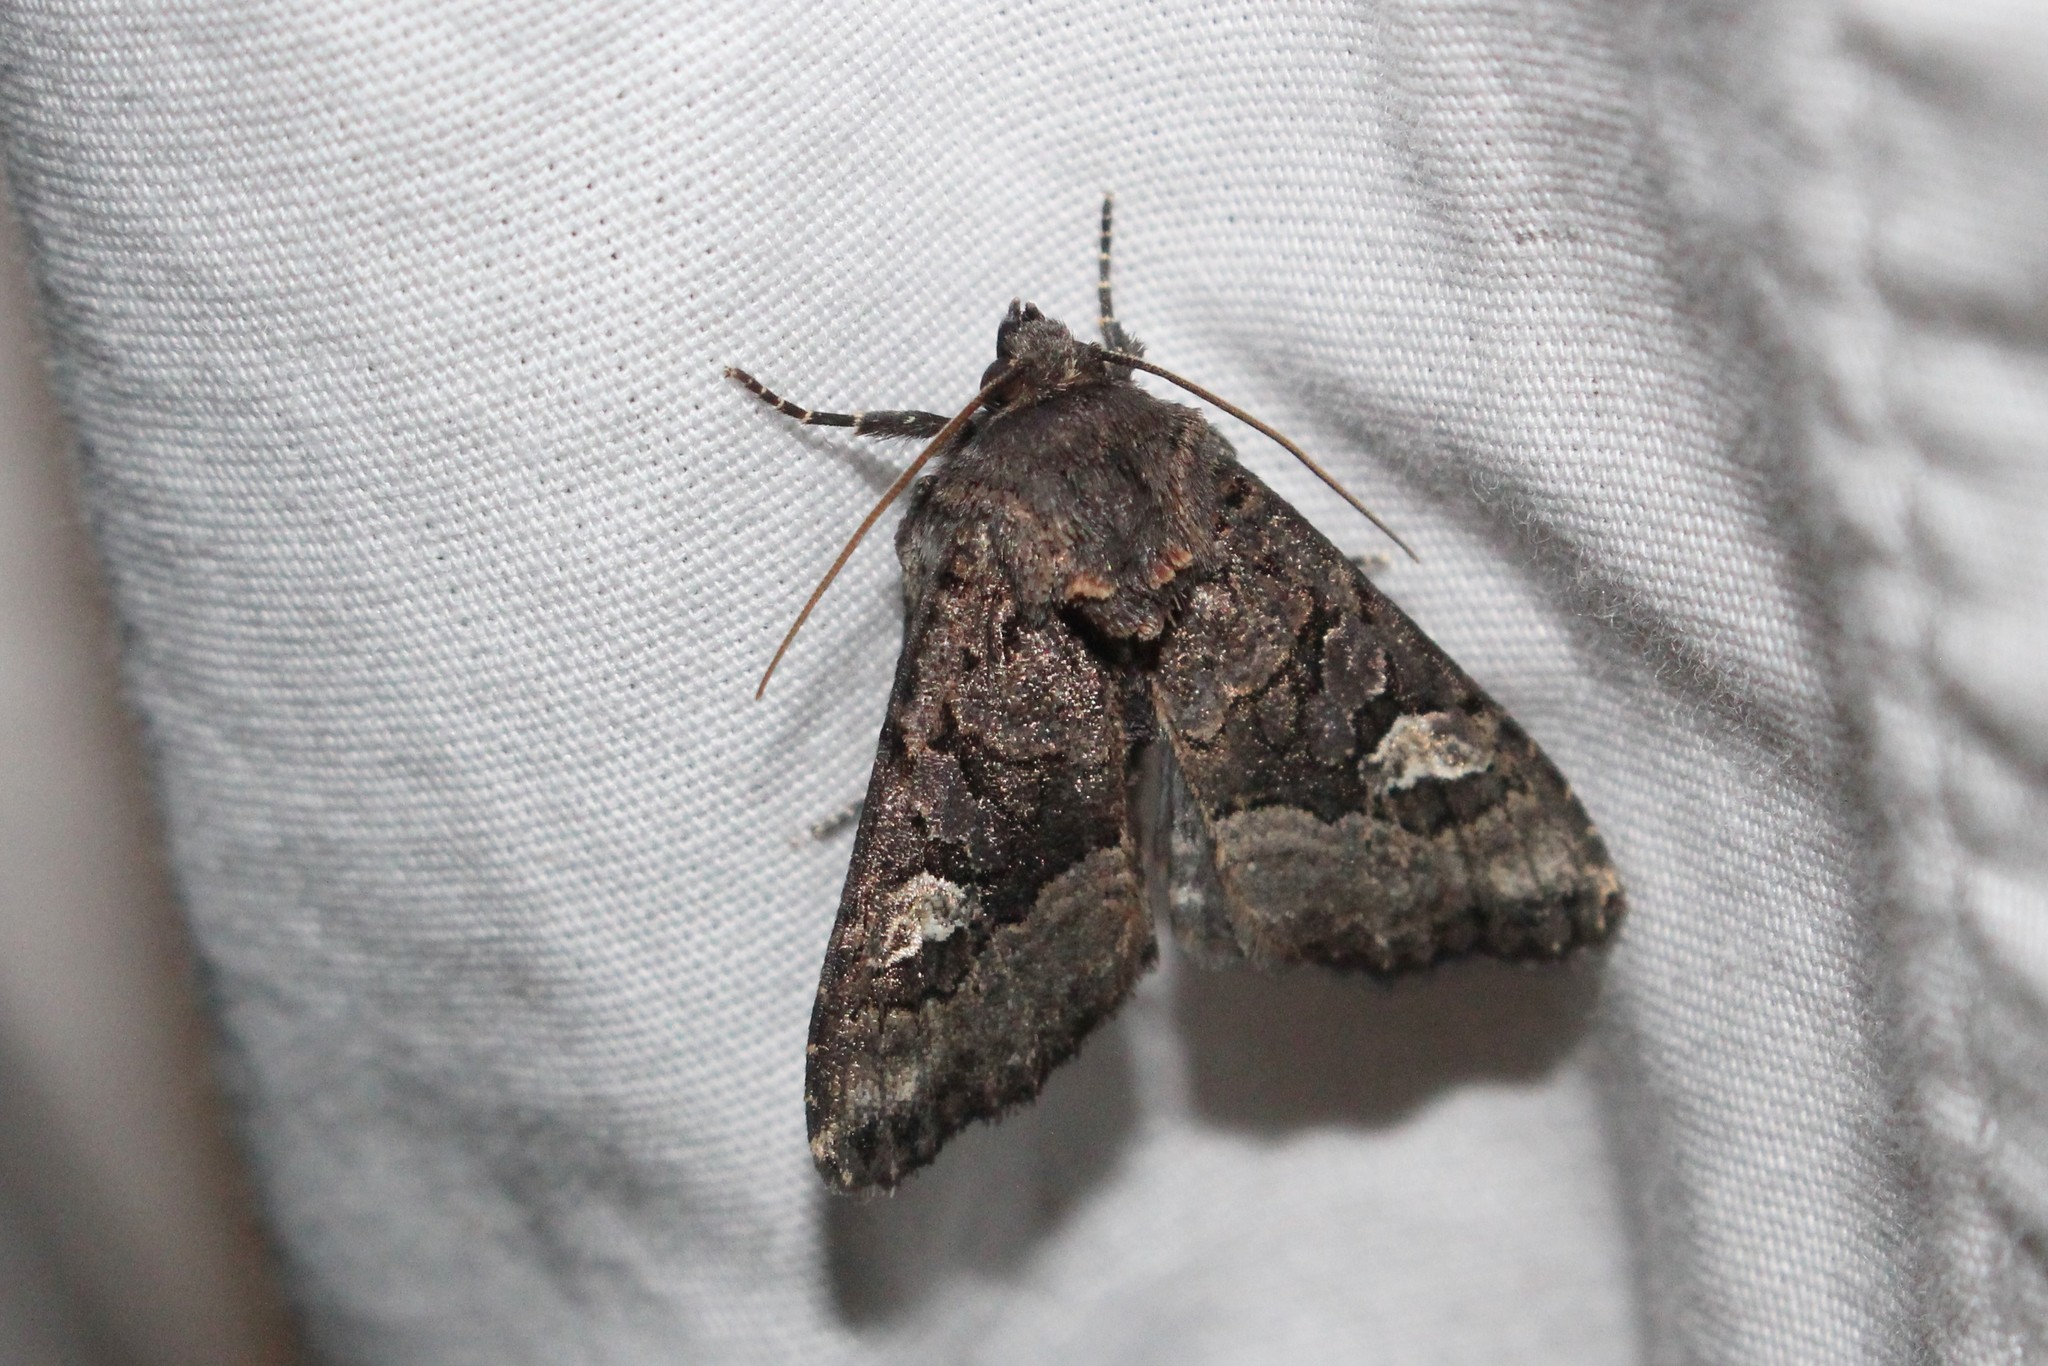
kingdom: Animalia
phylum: Arthropoda
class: Insecta
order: Lepidoptera
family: Noctuidae
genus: Euplexia
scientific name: Euplexia benesimilis
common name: American angle shades
